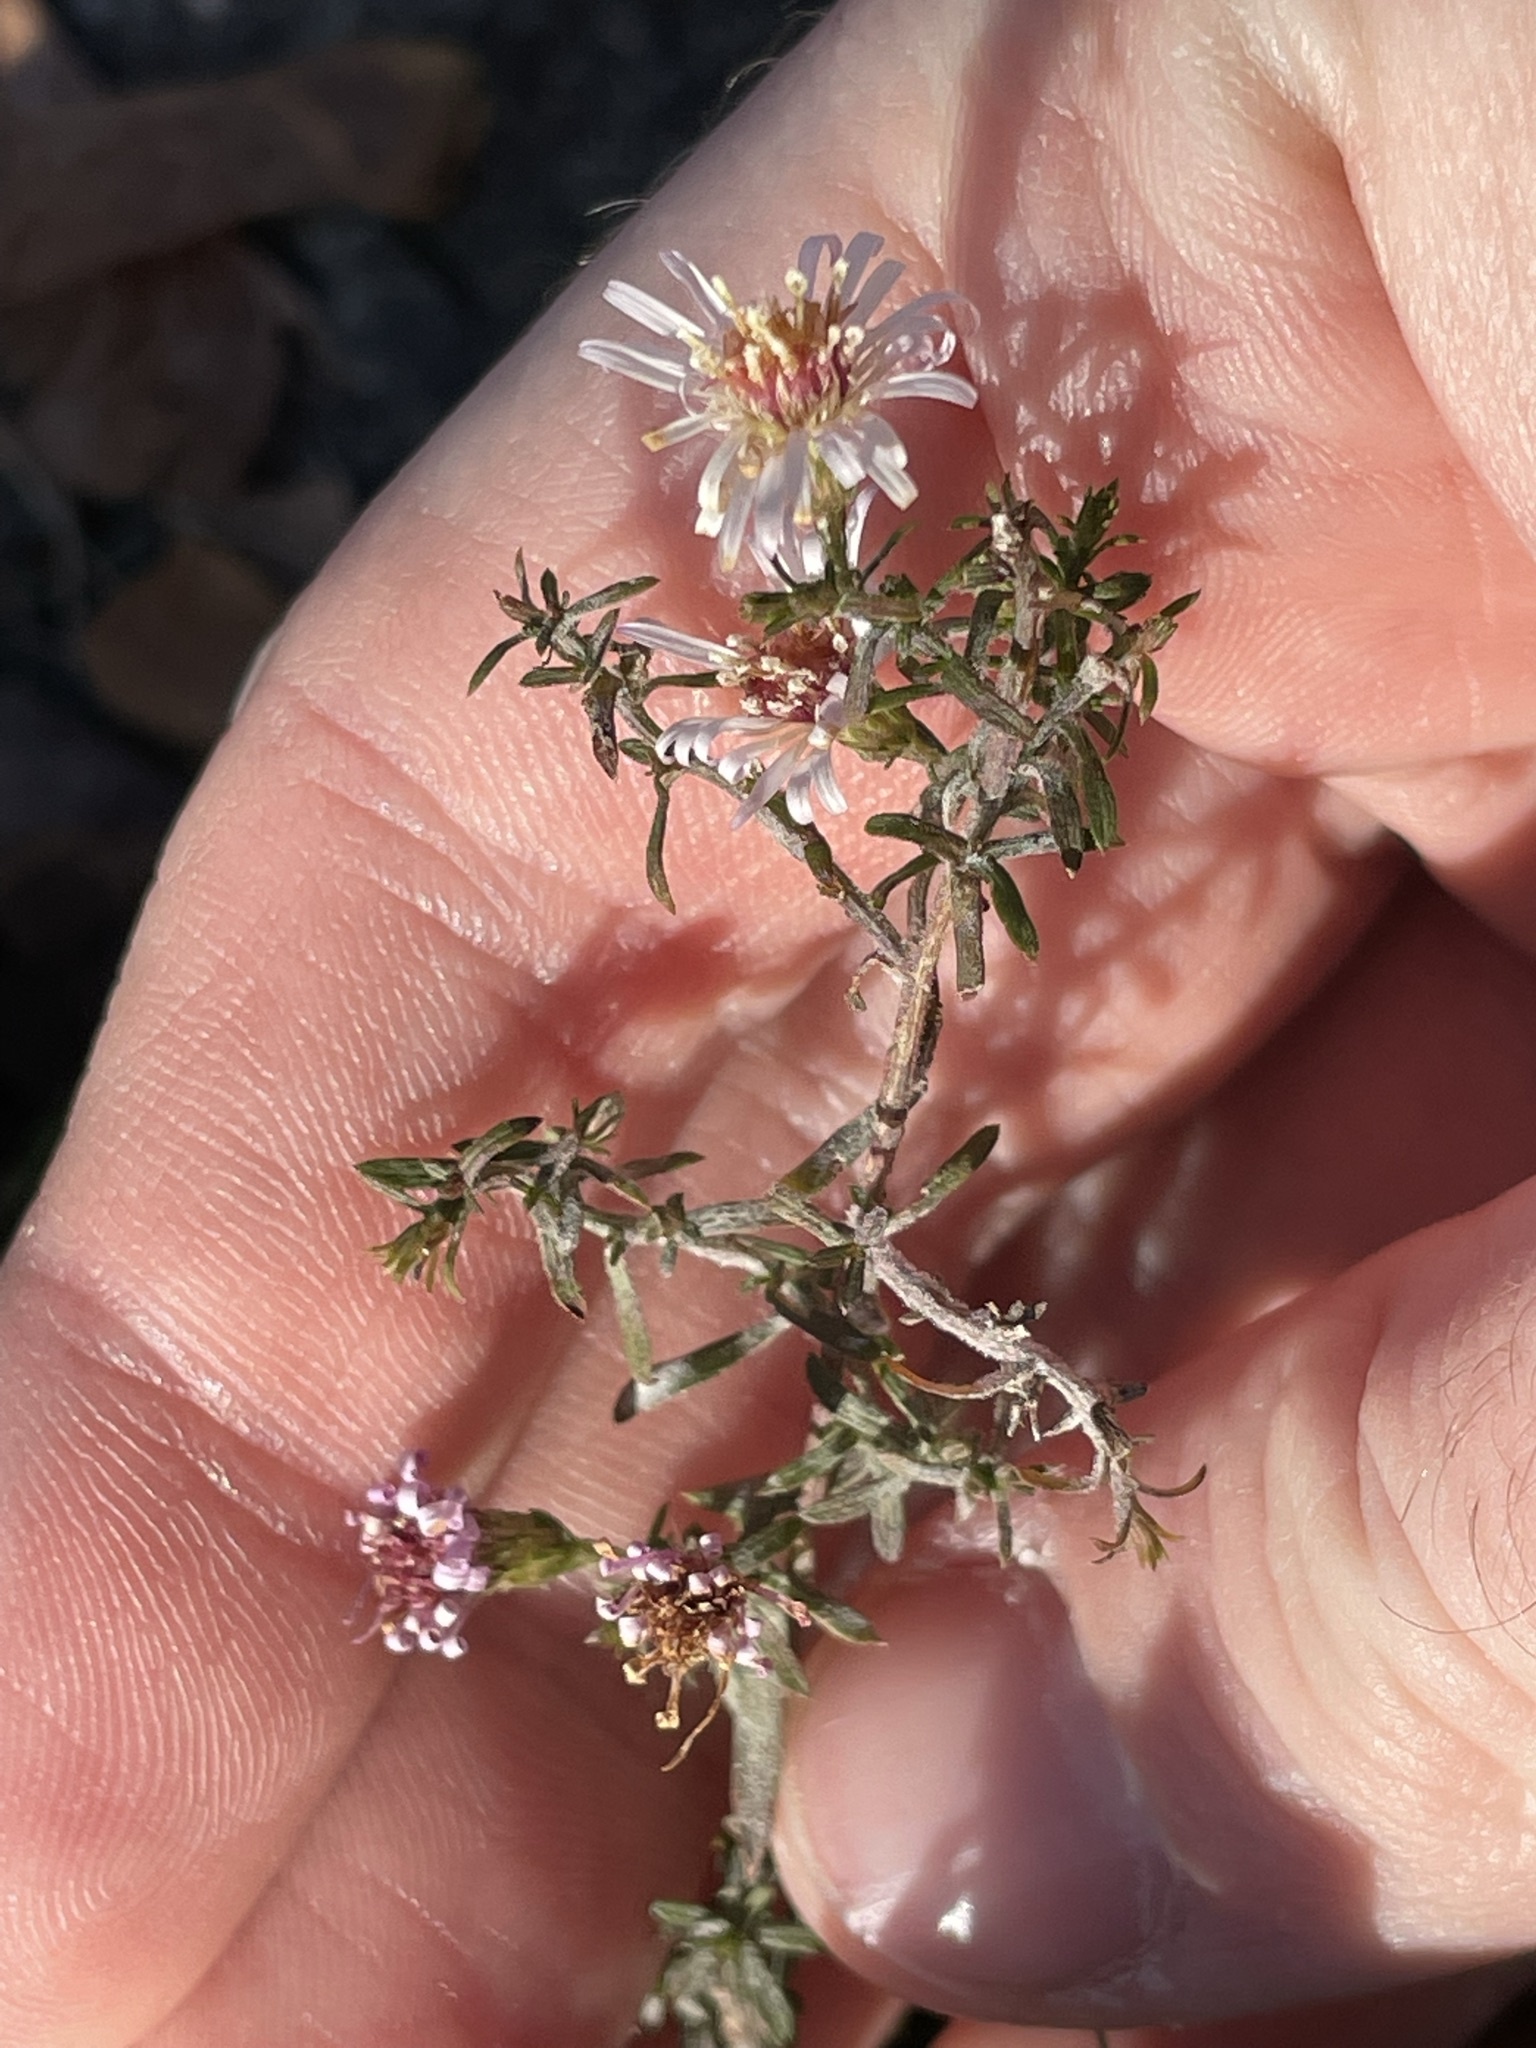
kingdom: Plantae
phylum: Tracheophyta
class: Magnoliopsida
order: Asterales
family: Asteraceae
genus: Symphyotrichum
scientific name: Symphyotrichum racemosum
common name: Small white aster
